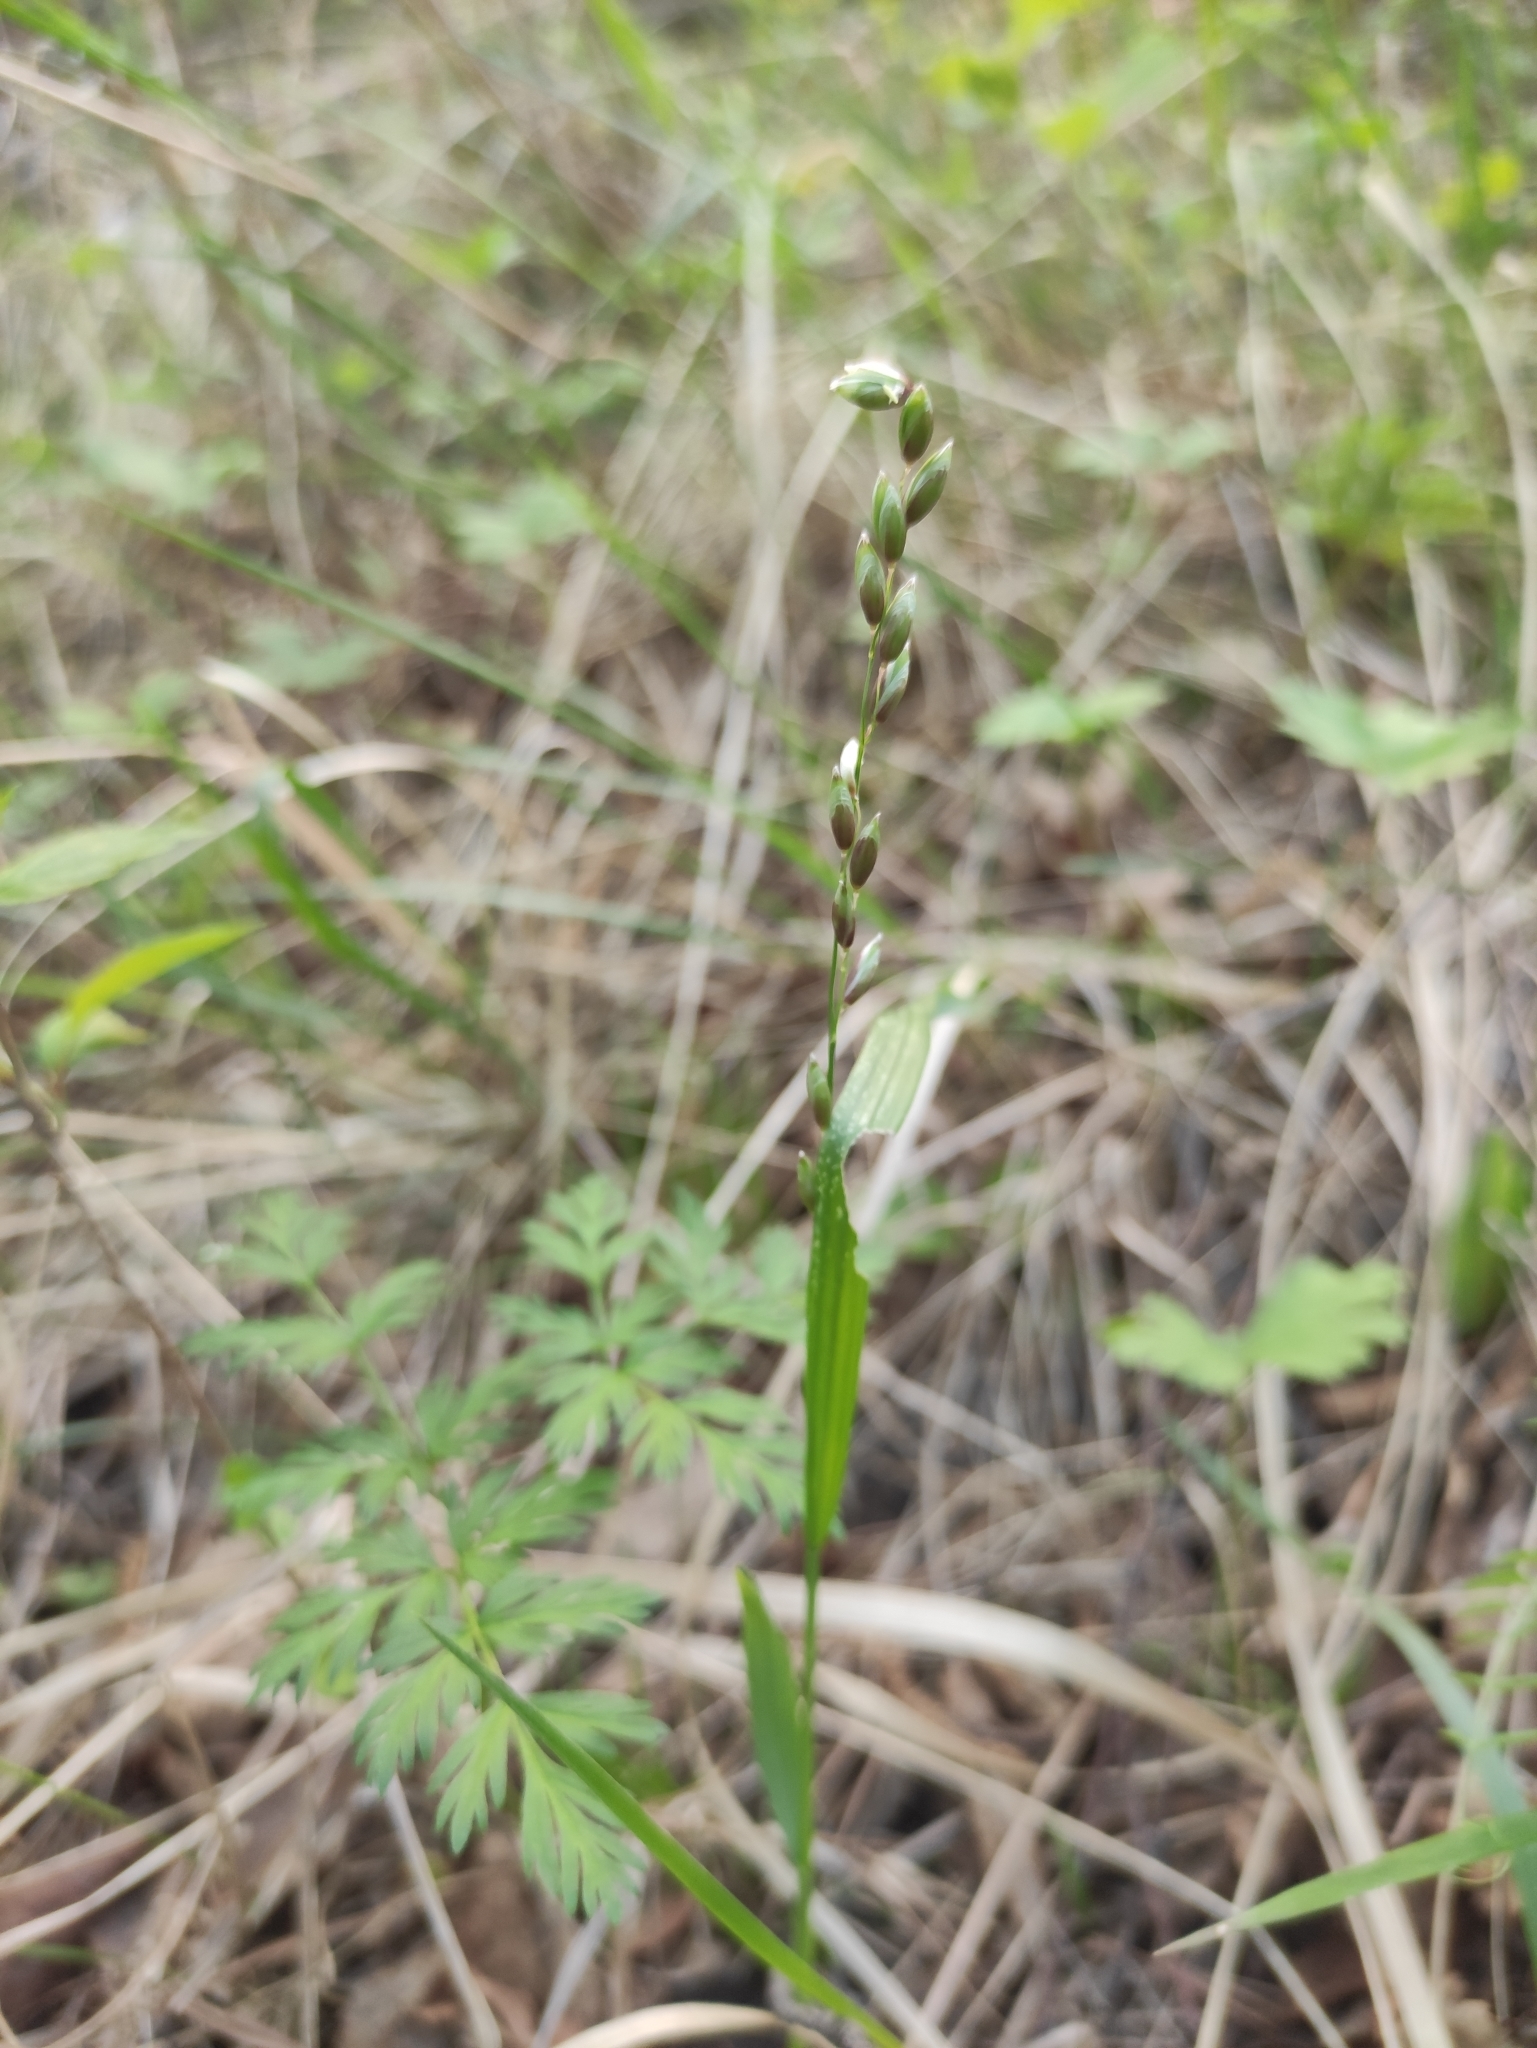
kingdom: Plantae
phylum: Tracheophyta
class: Liliopsida
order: Poales
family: Poaceae
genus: Melica
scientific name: Melica nutans
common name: Mountain melick
